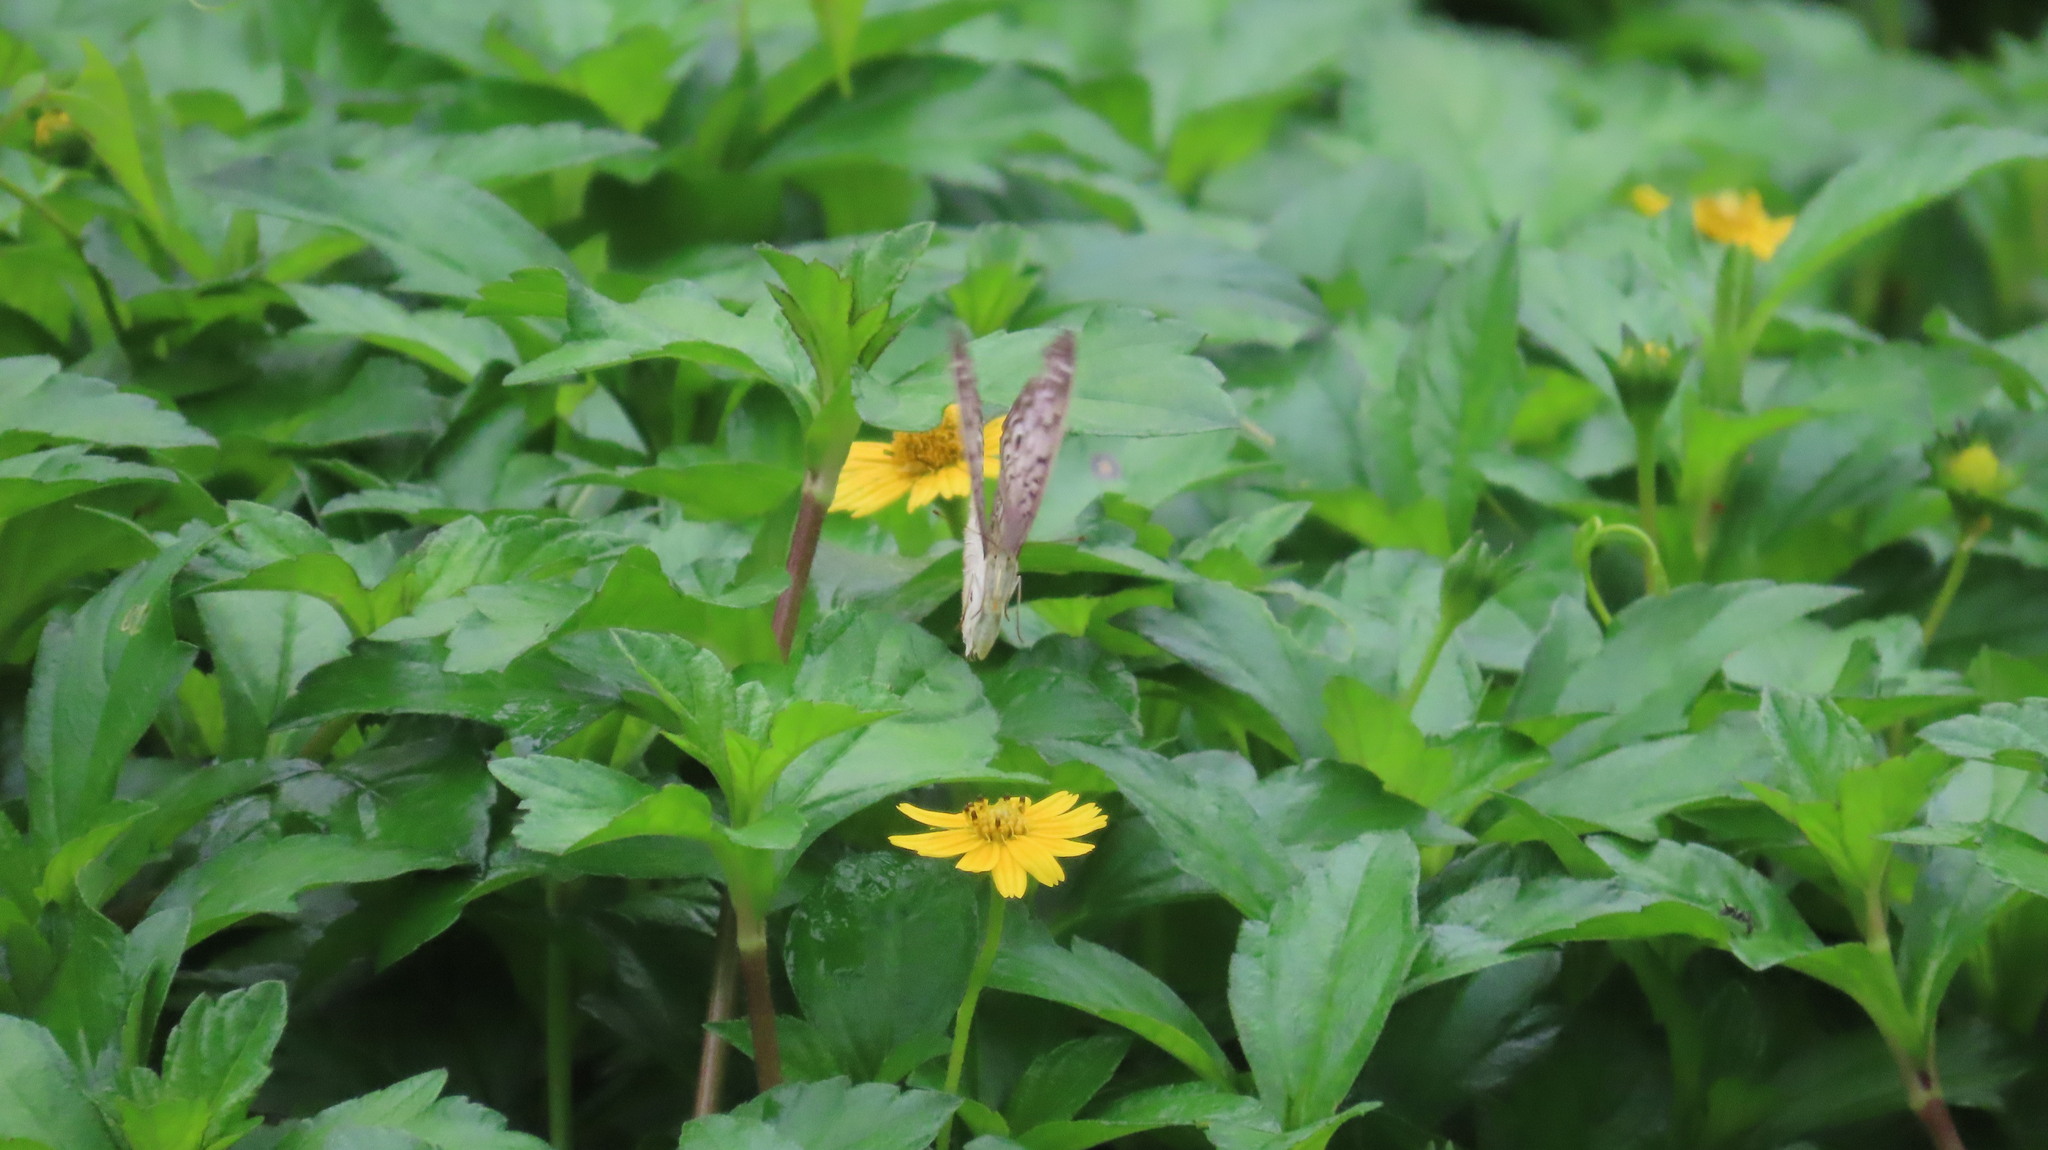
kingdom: Animalia
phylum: Arthropoda
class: Insecta
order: Lepidoptera
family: Nymphalidae
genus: Junonia
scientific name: Junonia atlites
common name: Grey pansy
